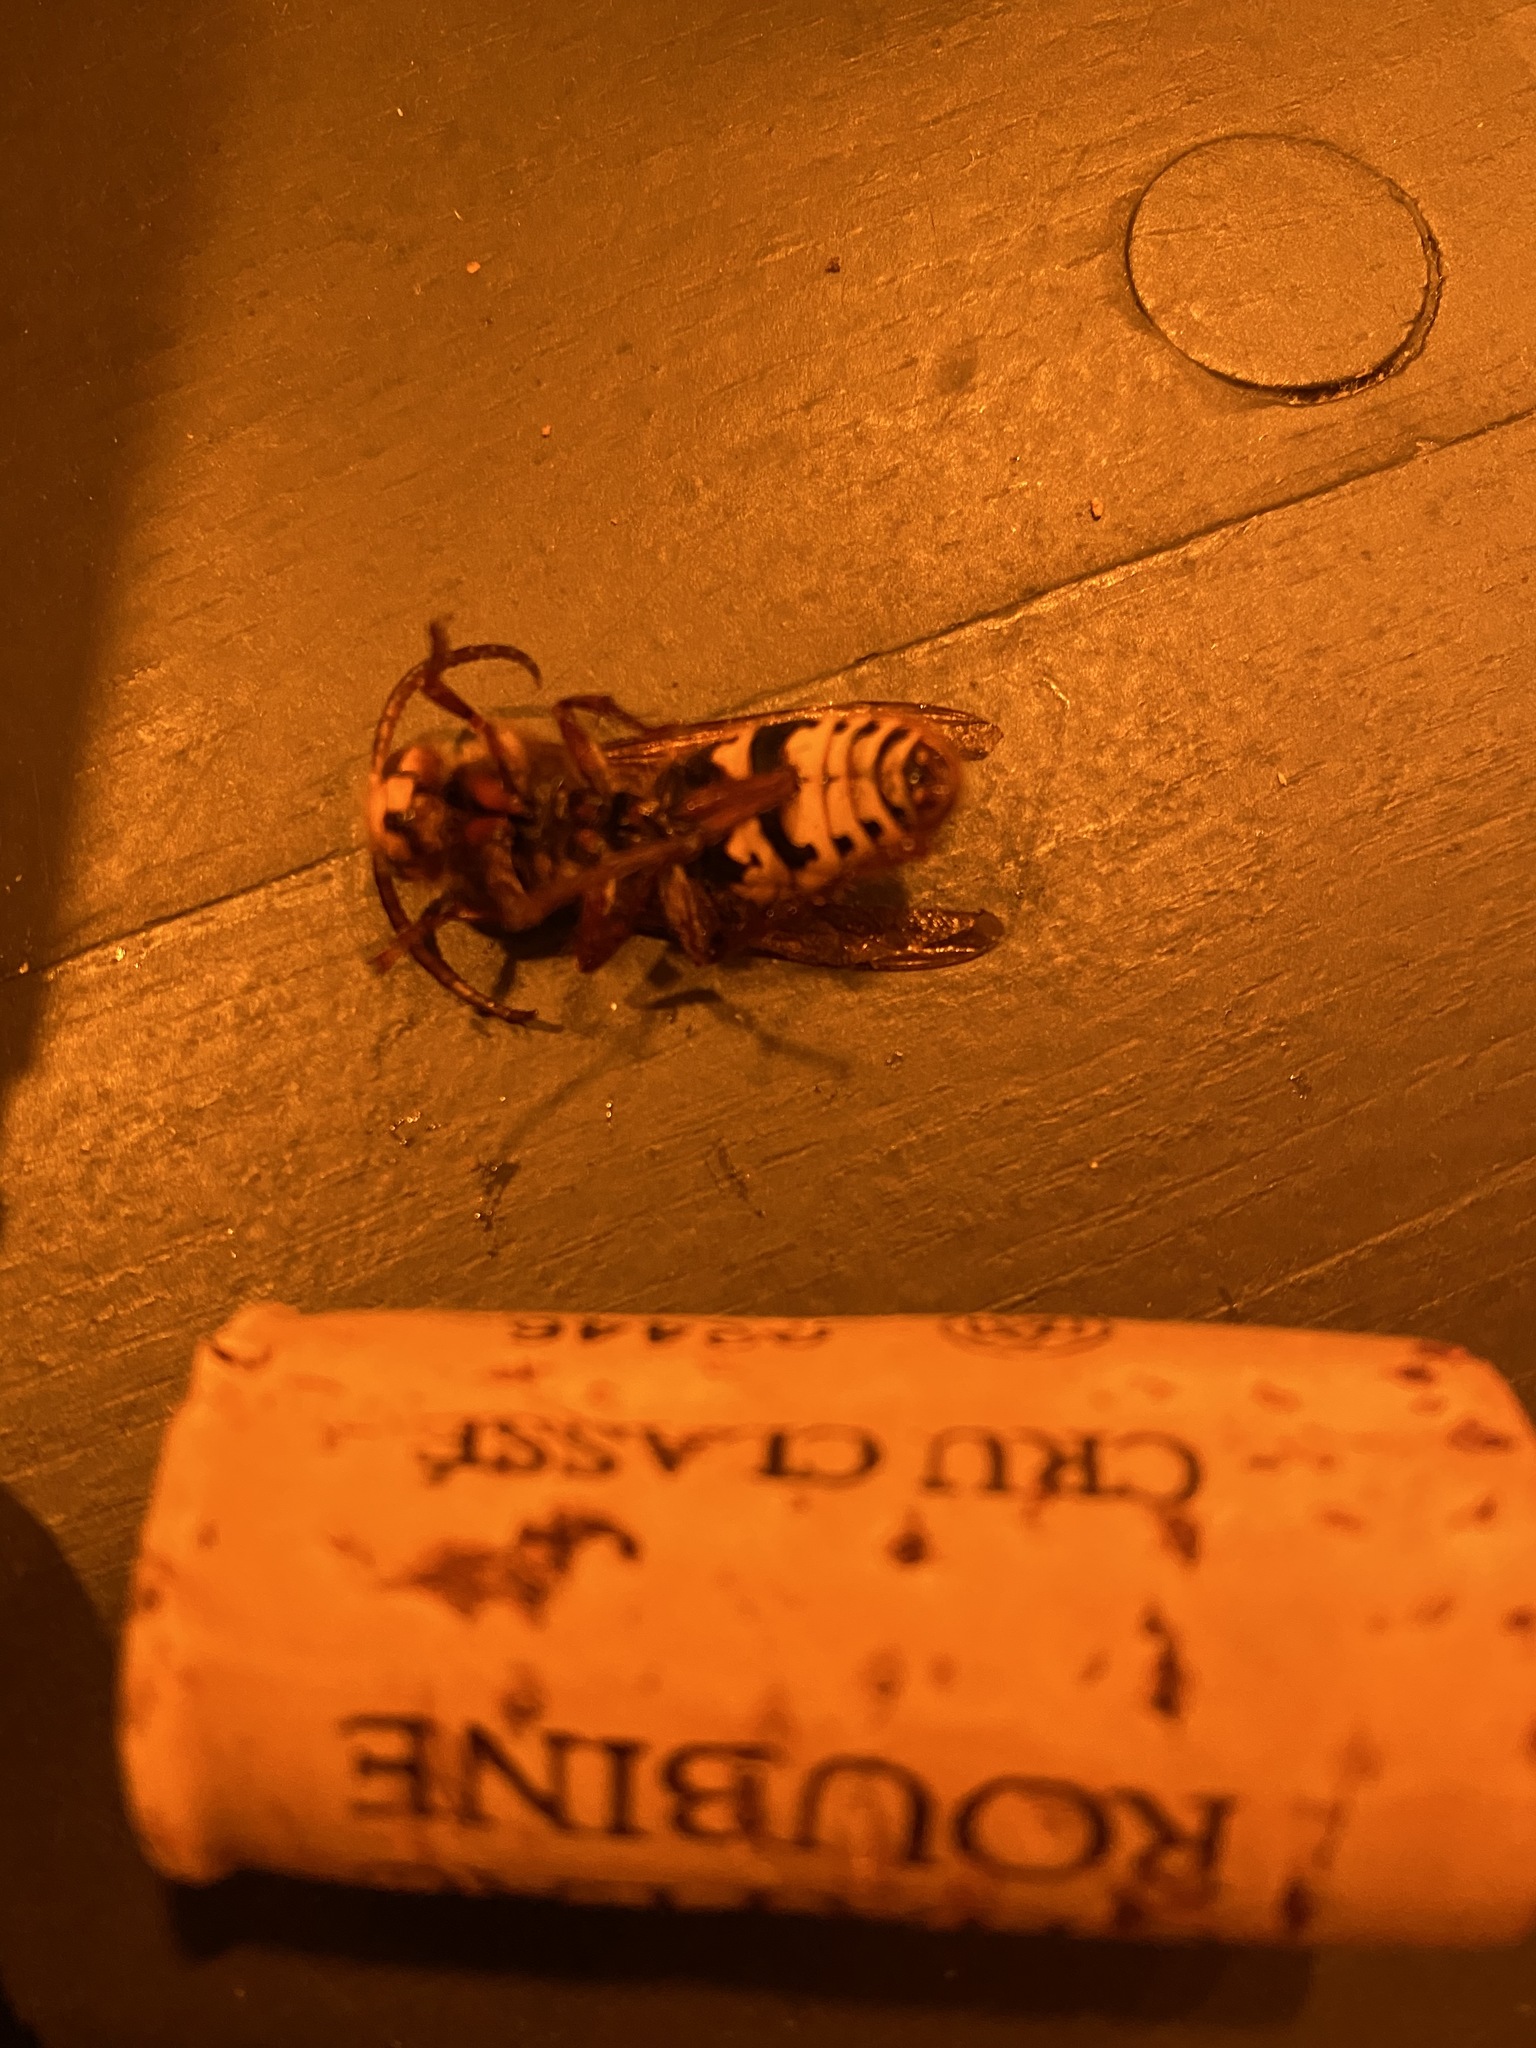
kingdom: Animalia
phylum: Arthropoda
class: Insecta
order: Hymenoptera
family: Vespidae
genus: Vespa
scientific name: Vespa crabro
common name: Hornet
